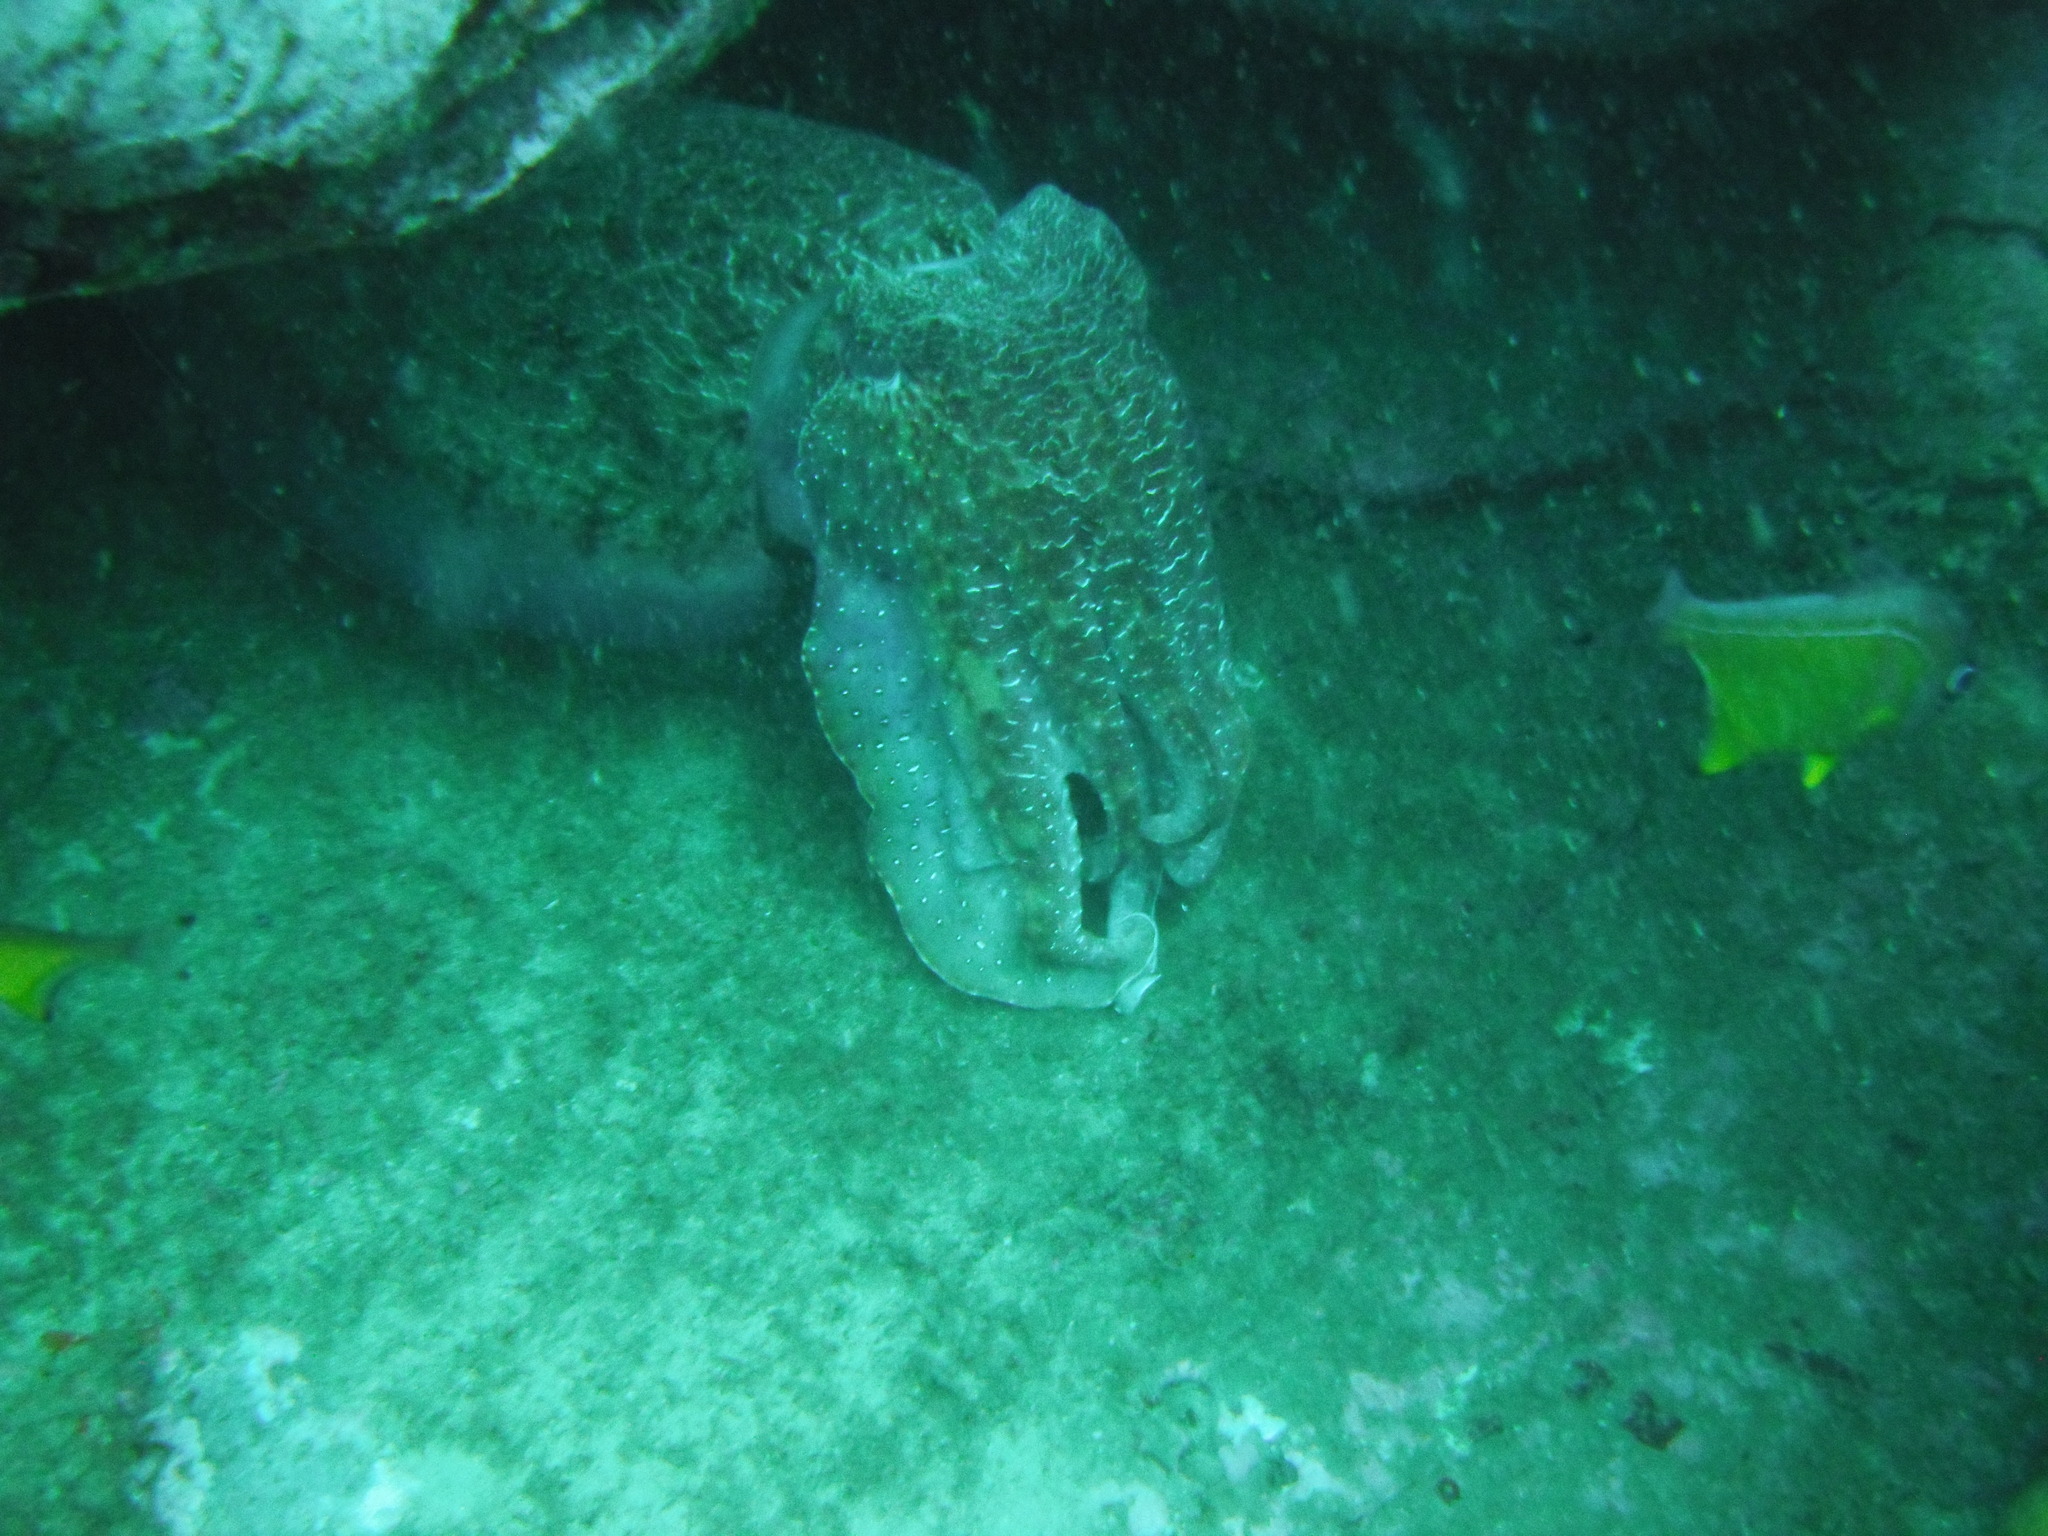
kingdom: Animalia
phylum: Chordata
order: Perciformes
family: Pempheridae
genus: Pempheris
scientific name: Pempheris affinis
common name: Black-tipped bullseye
